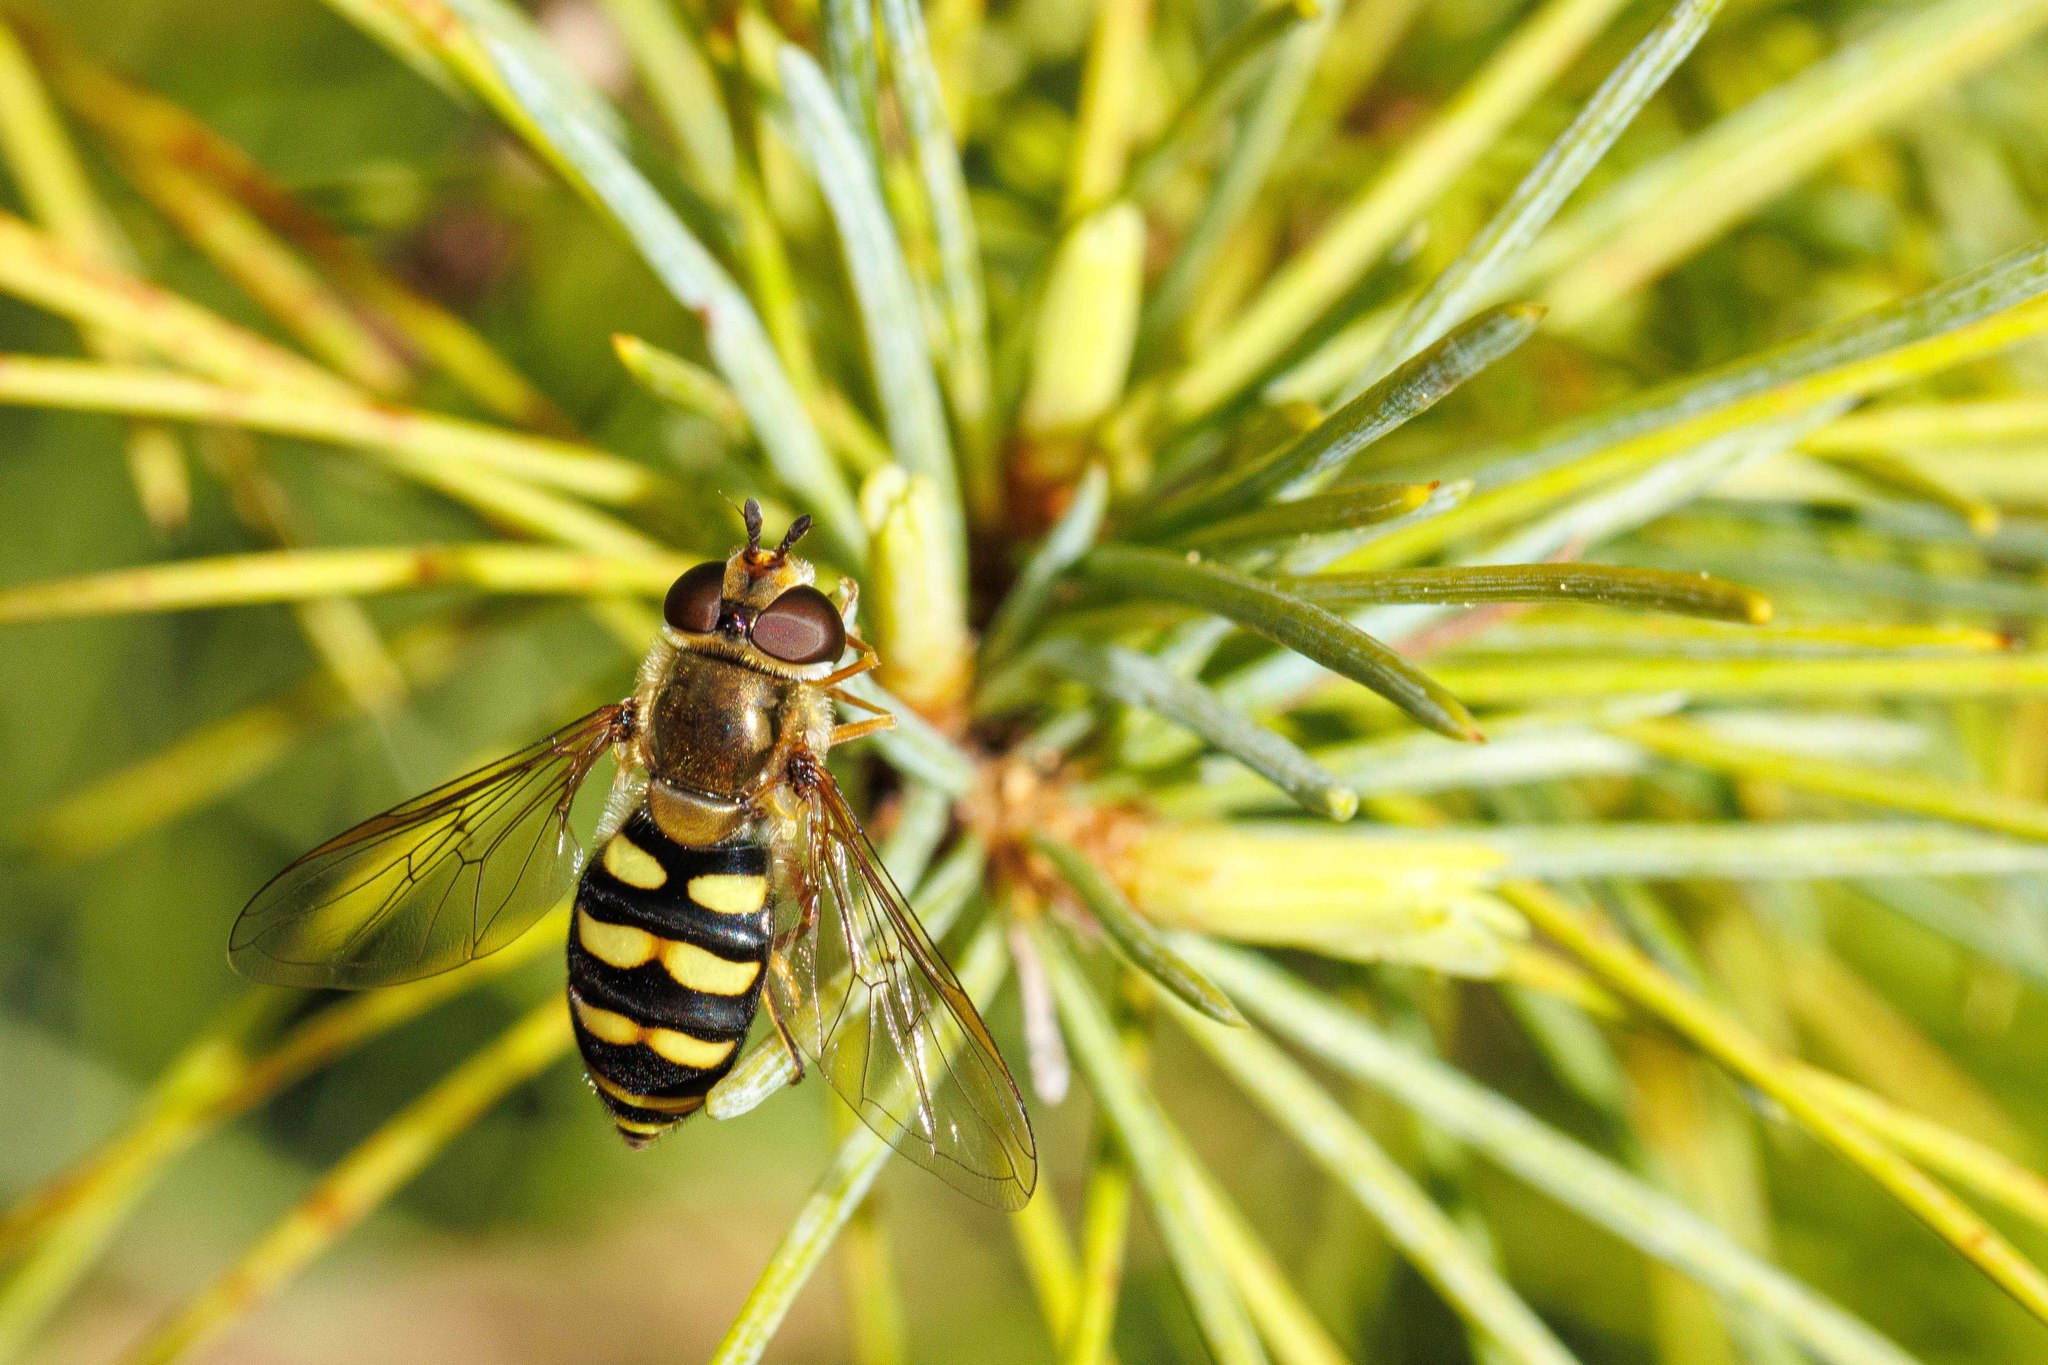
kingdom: Animalia
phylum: Arthropoda
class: Insecta
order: Diptera
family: Syrphidae
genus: Eupeodes
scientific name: Eupeodes fumipennis
